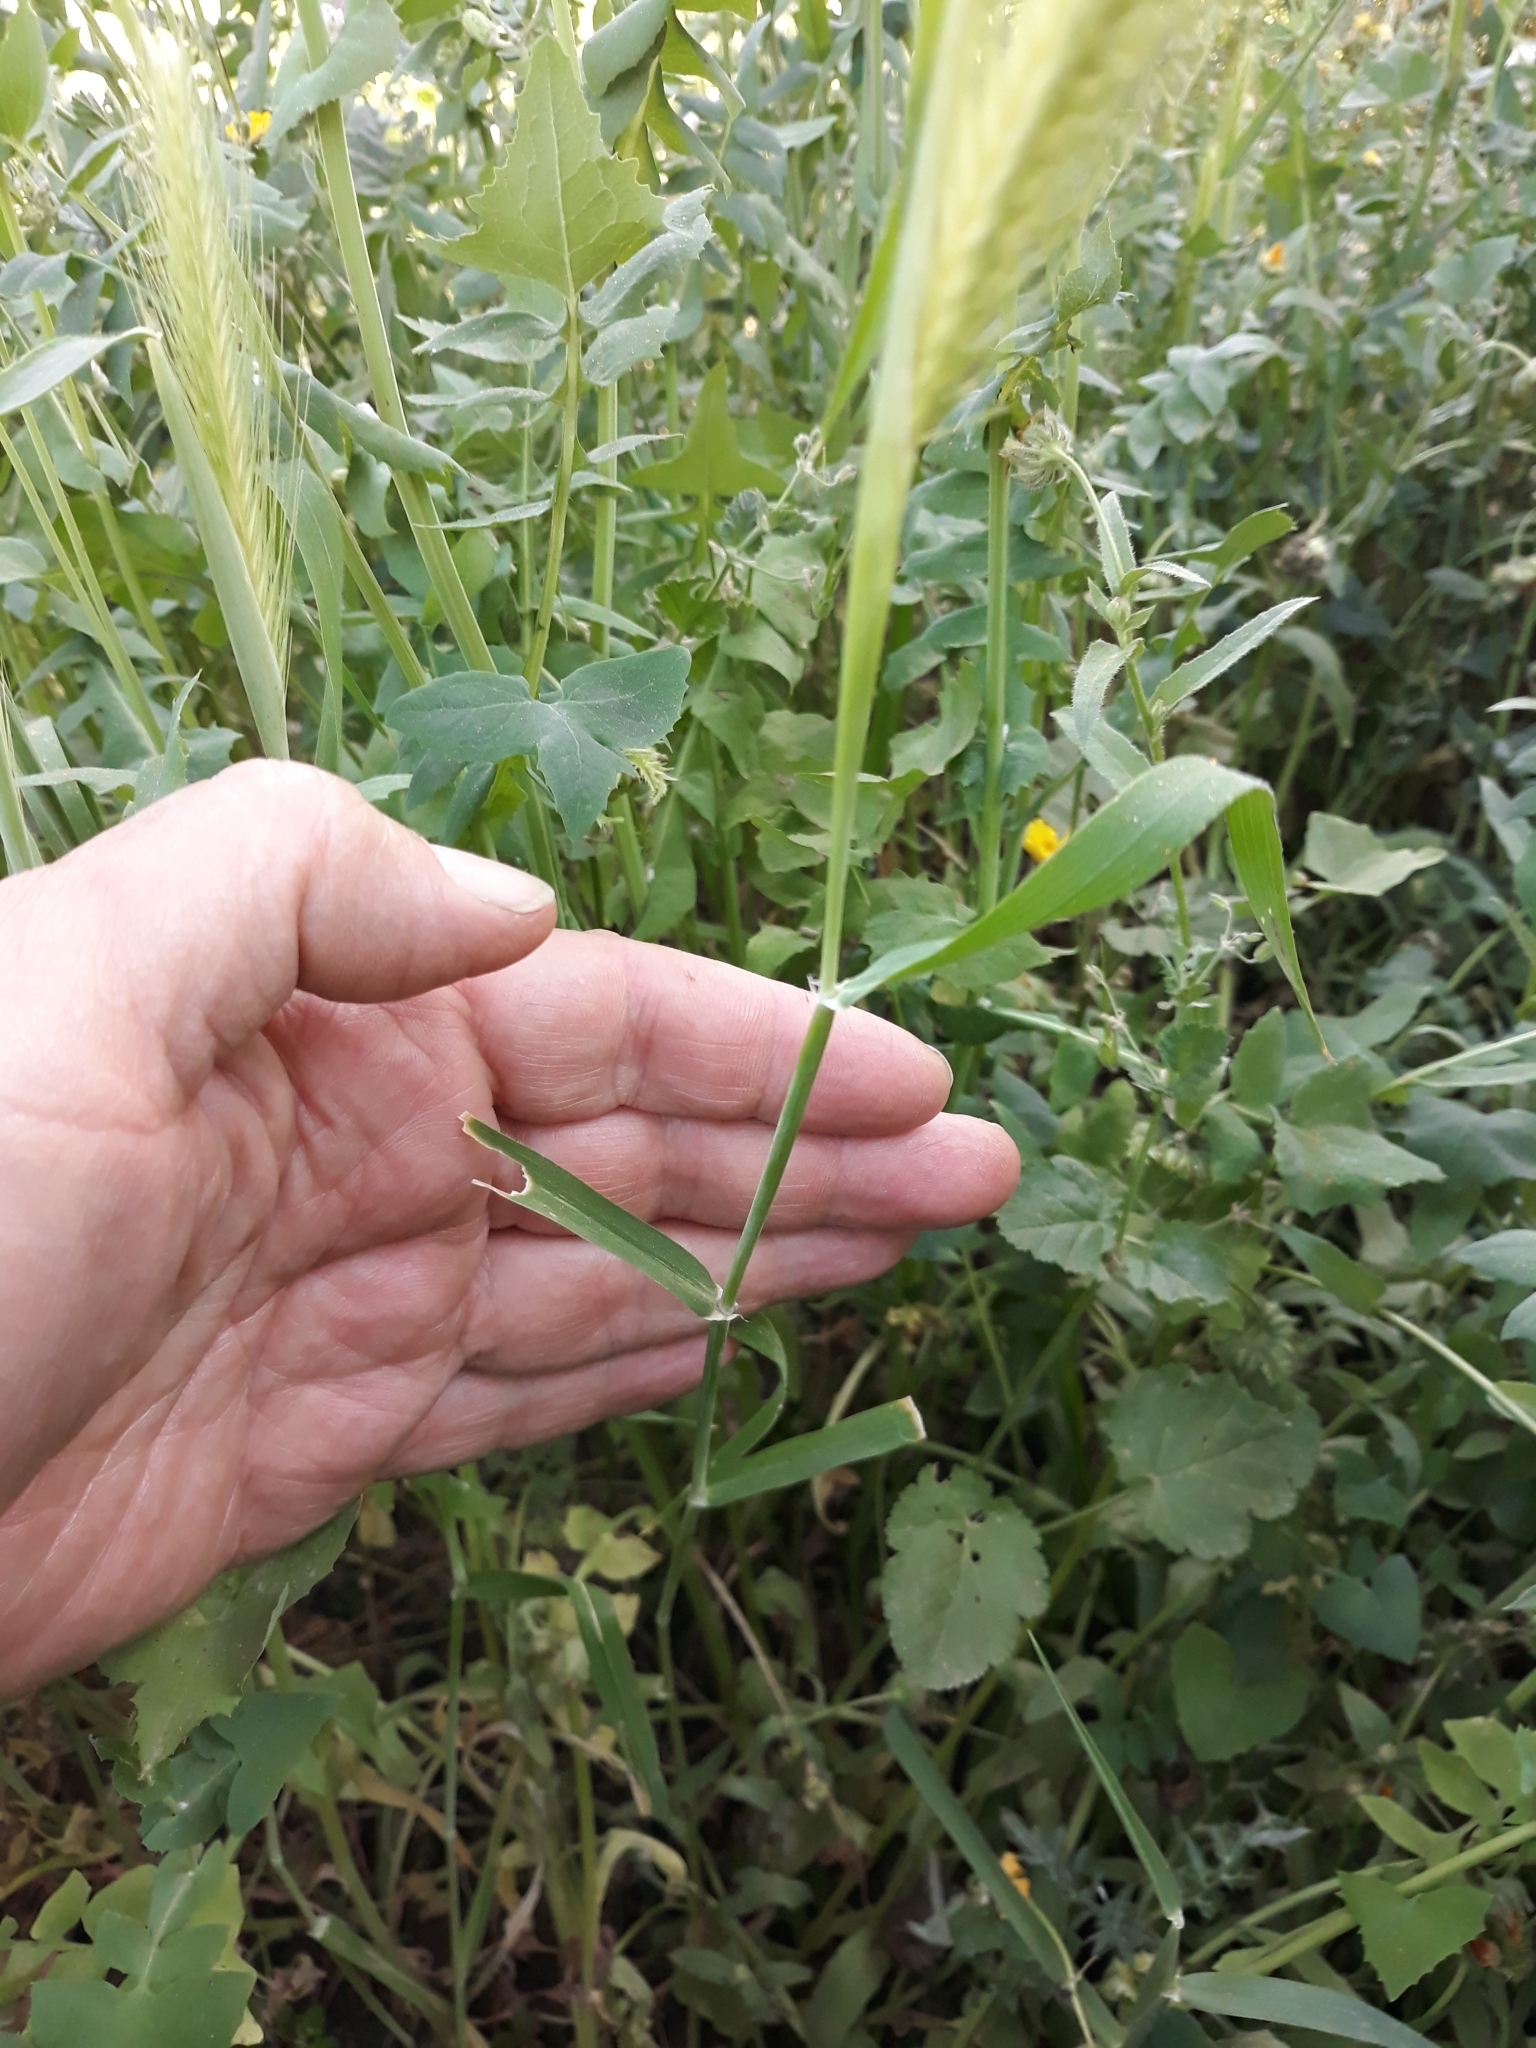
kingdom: Plantae
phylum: Tracheophyta
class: Liliopsida
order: Poales
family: Poaceae
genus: Hordeum
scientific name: Hordeum murinum
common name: Wall barley
